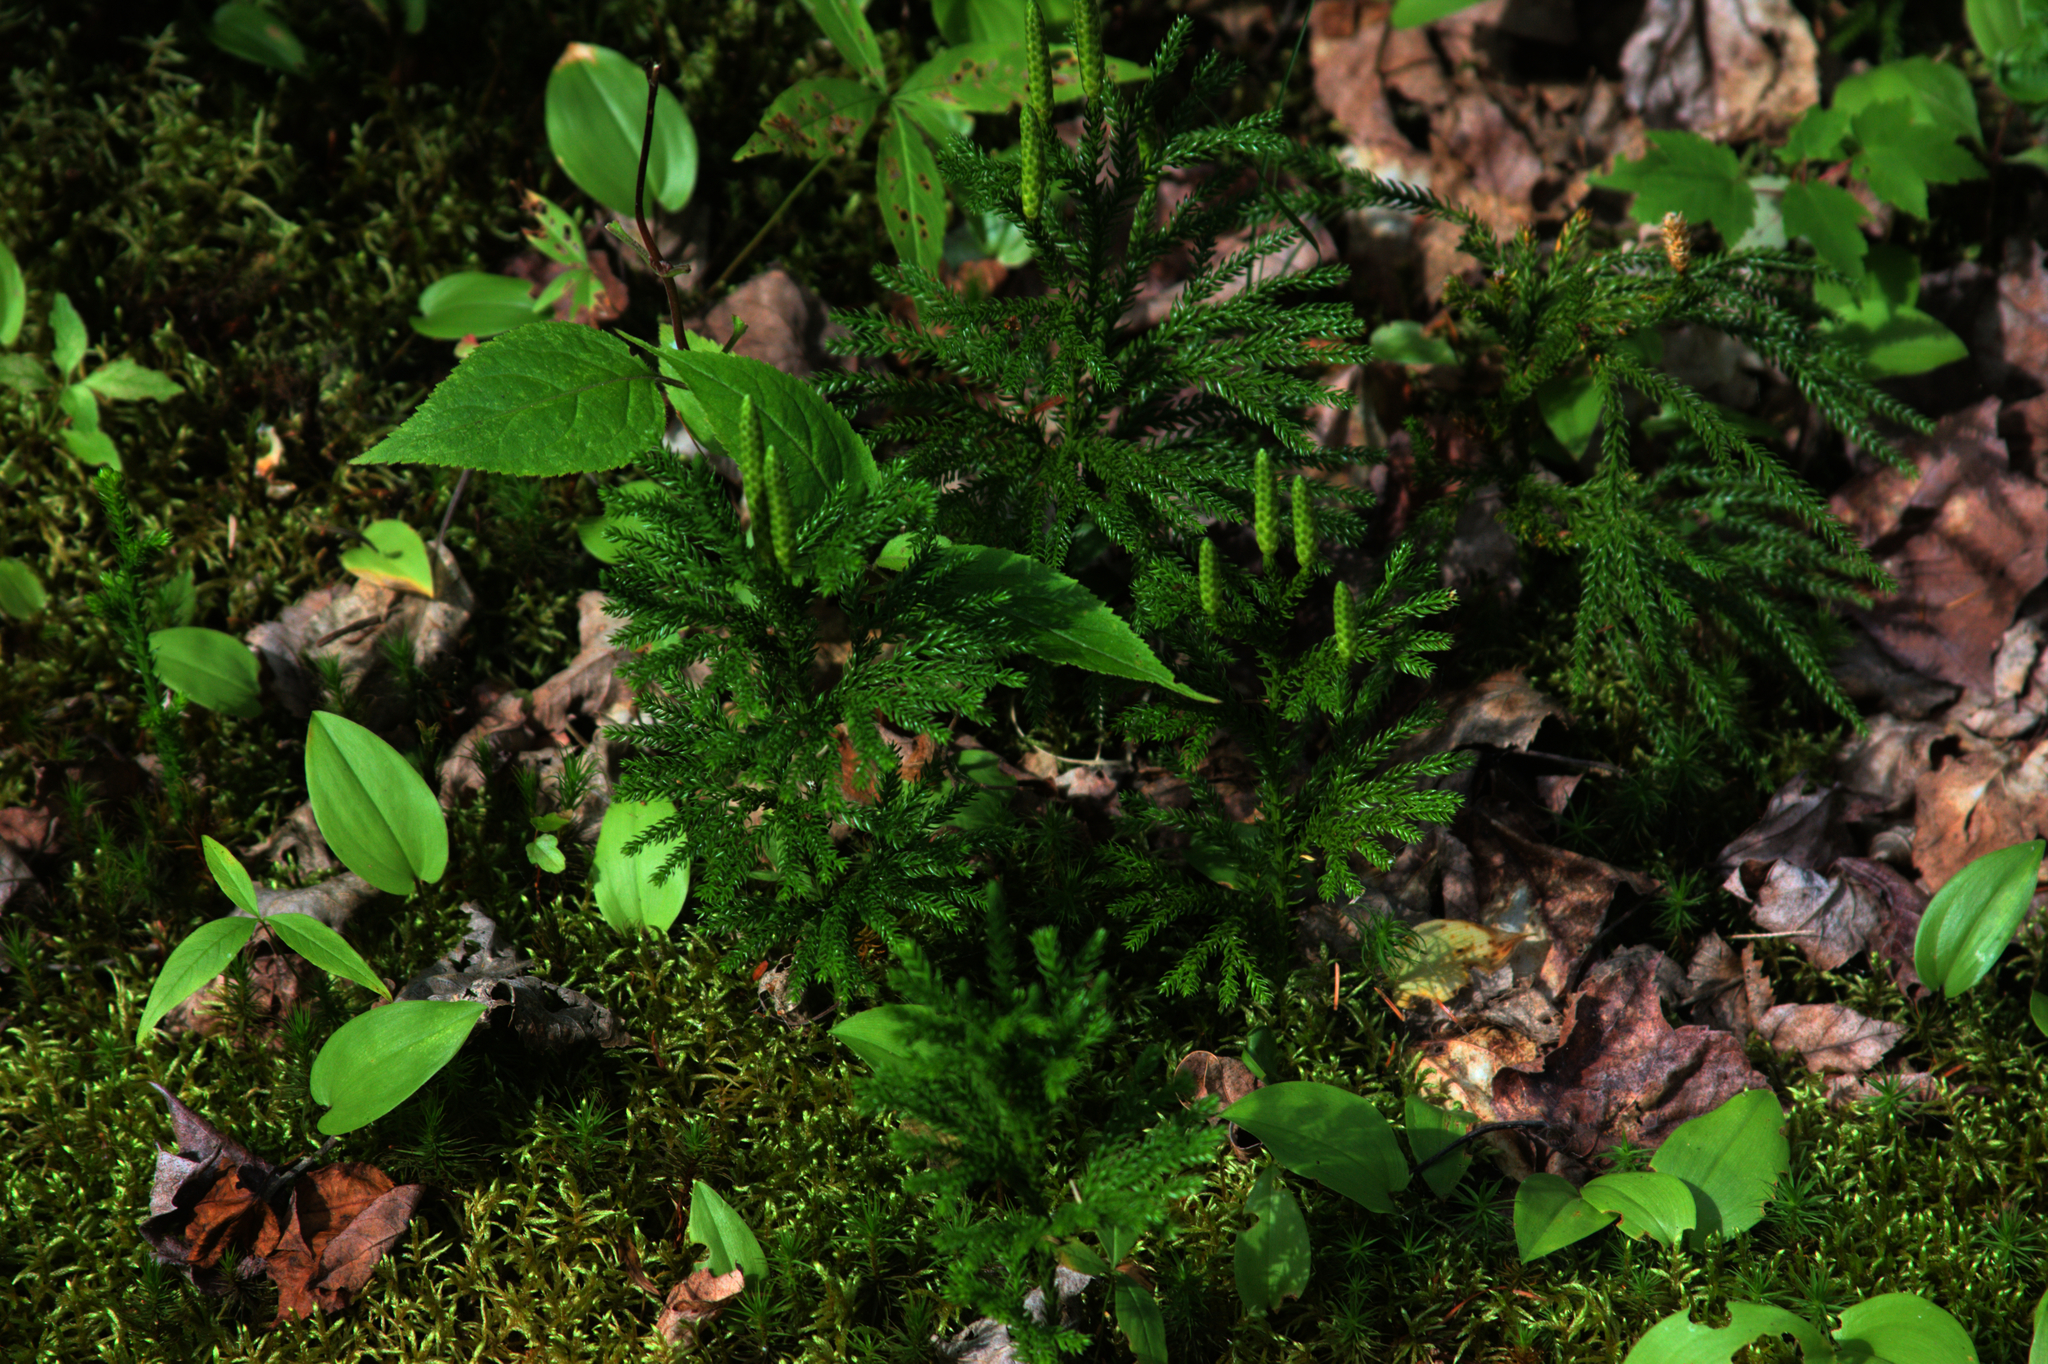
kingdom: Plantae
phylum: Tracheophyta
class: Liliopsida
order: Asparagales
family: Asparagaceae
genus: Maianthemum
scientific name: Maianthemum canadense
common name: False lily-of-the-valley
